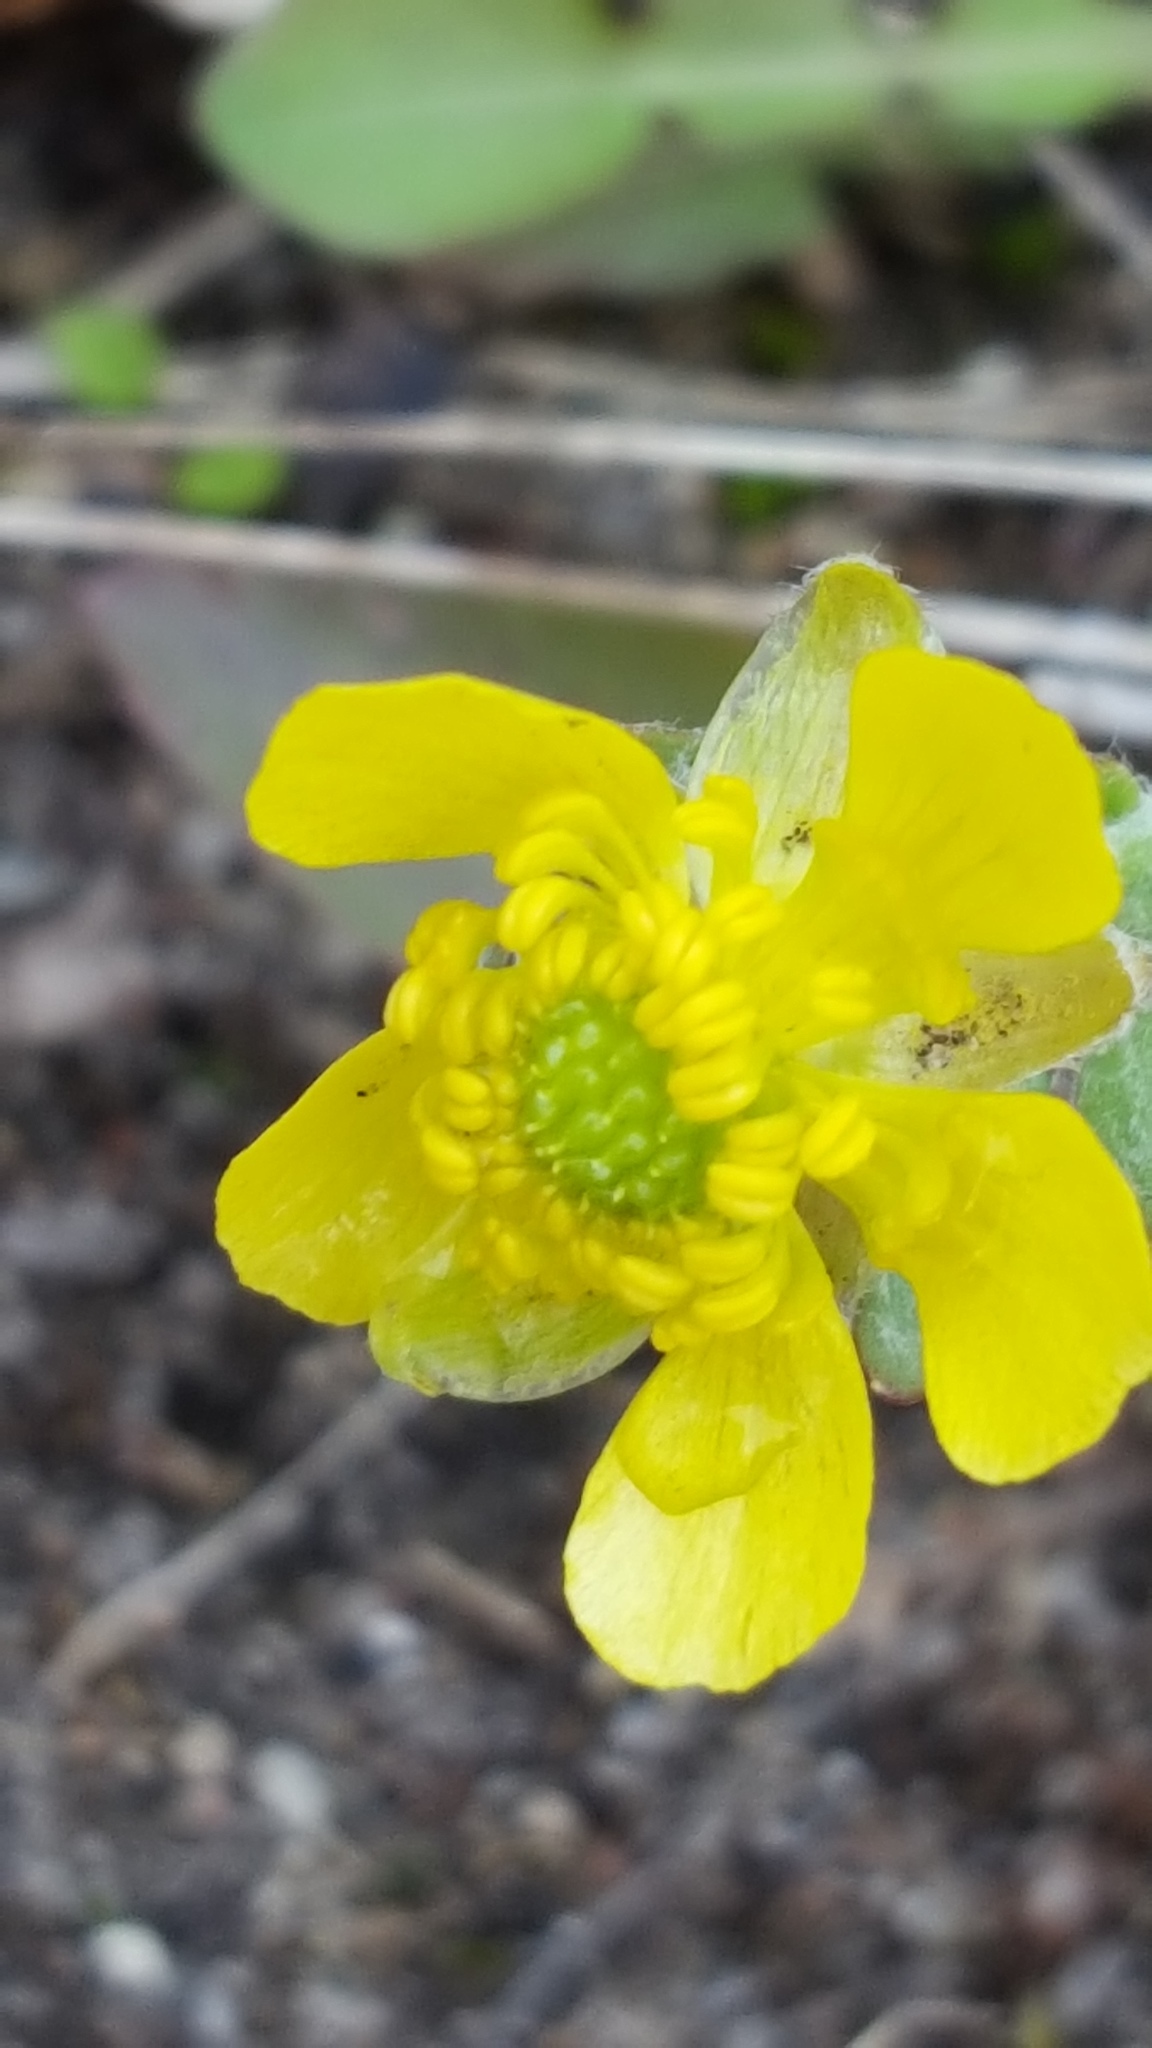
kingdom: Plantae
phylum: Tracheophyta
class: Magnoliopsida
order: Ranunculales
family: Ranunculaceae
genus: Ranunculus
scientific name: Ranunculus rhomboideus
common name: Prairie buttercup
